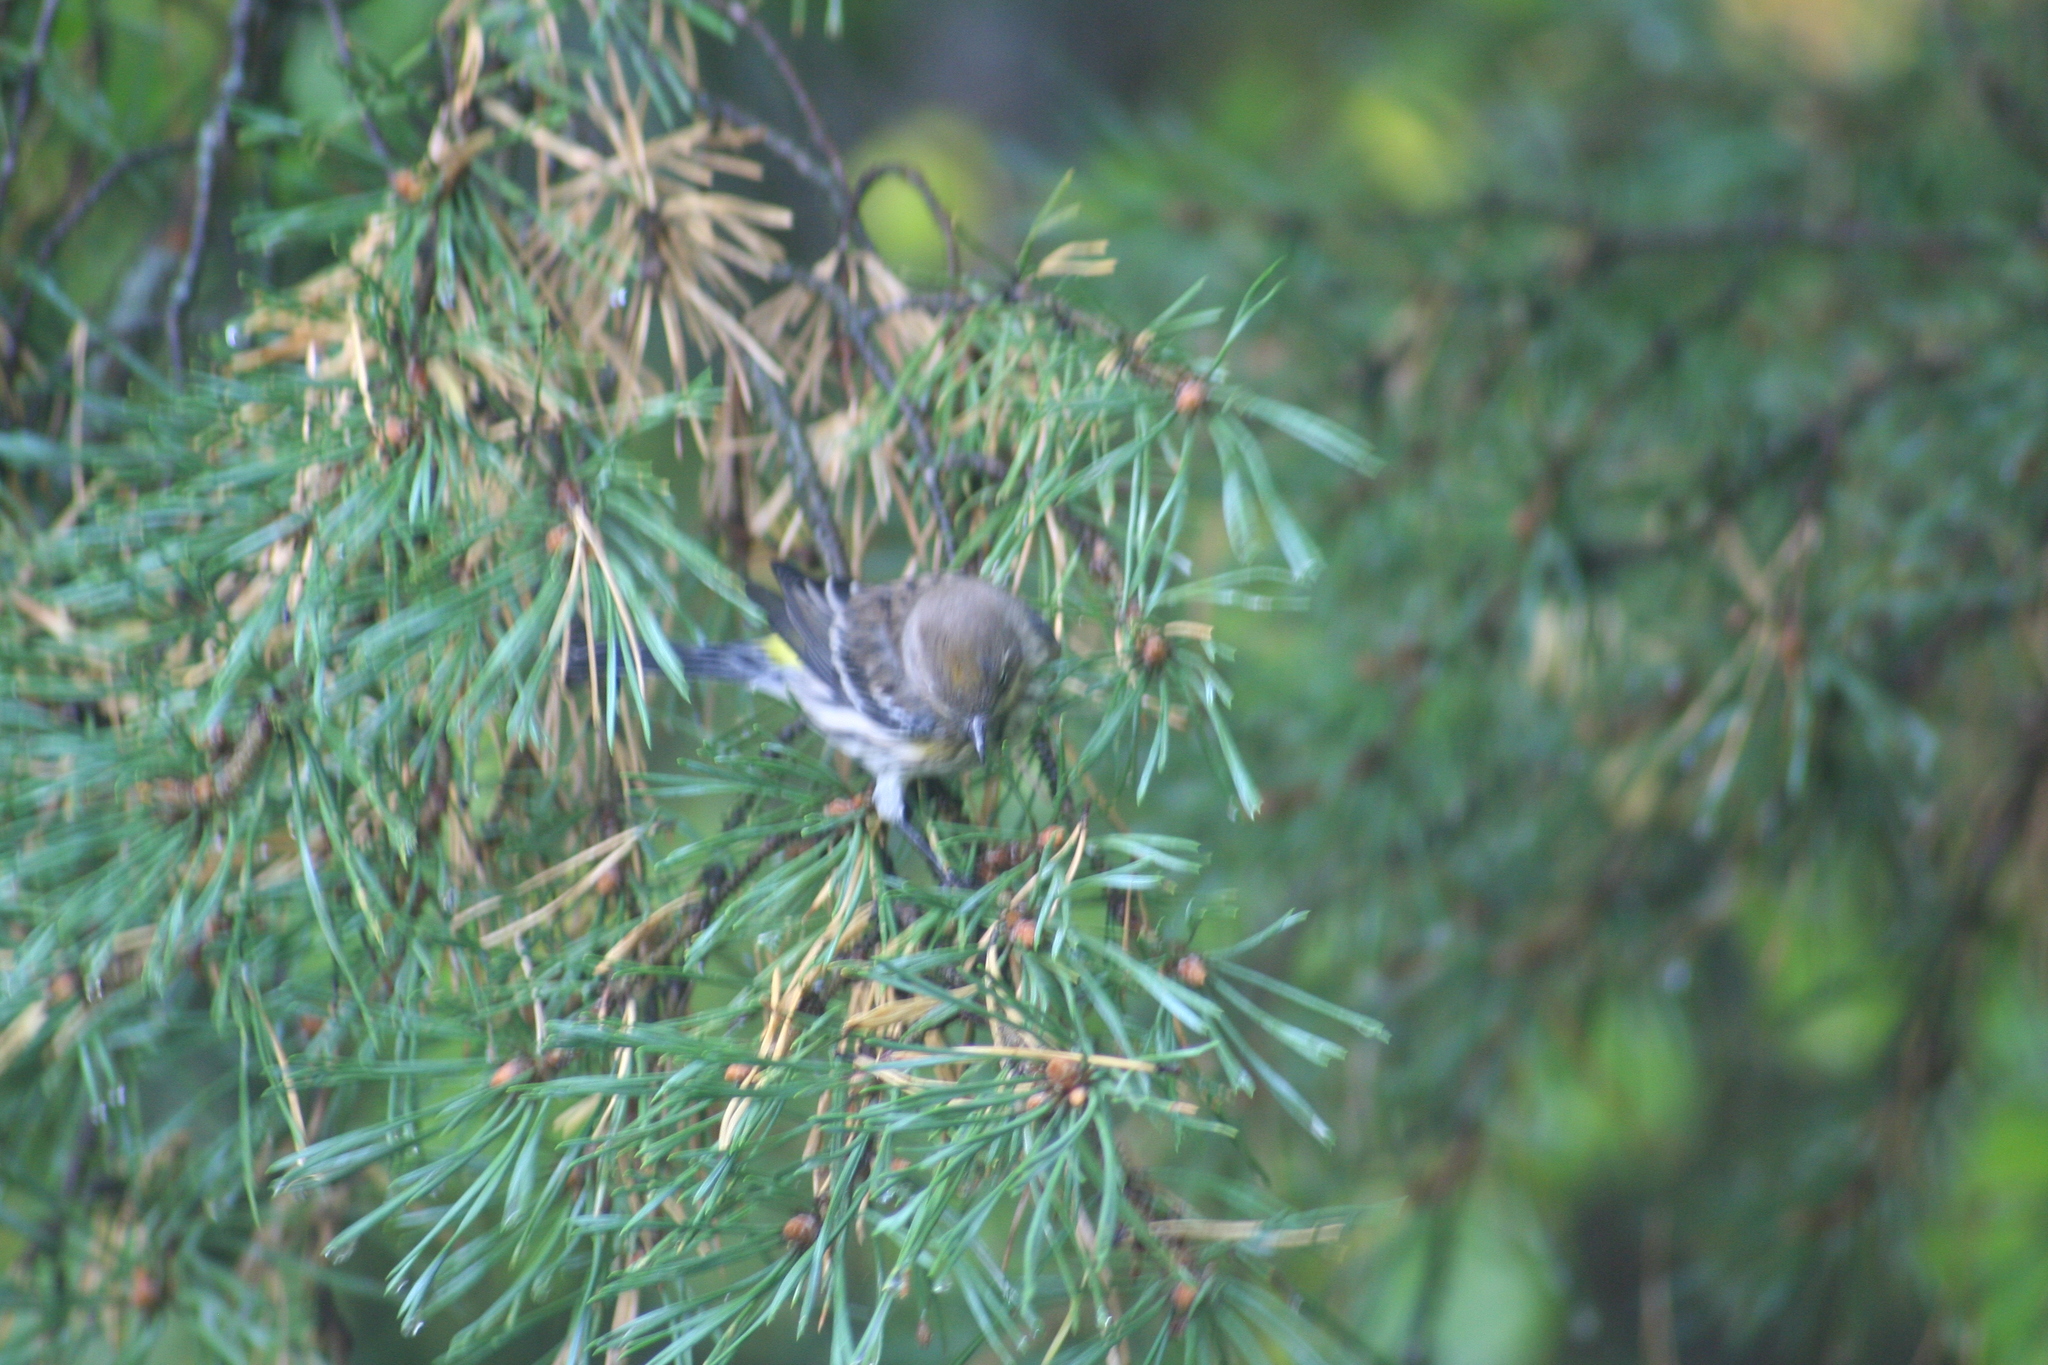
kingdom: Animalia
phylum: Chordata
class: Aves
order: Passeriformes
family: Parulidae
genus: Setophaga
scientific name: Setophaga coronata
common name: Myrtle warbler
